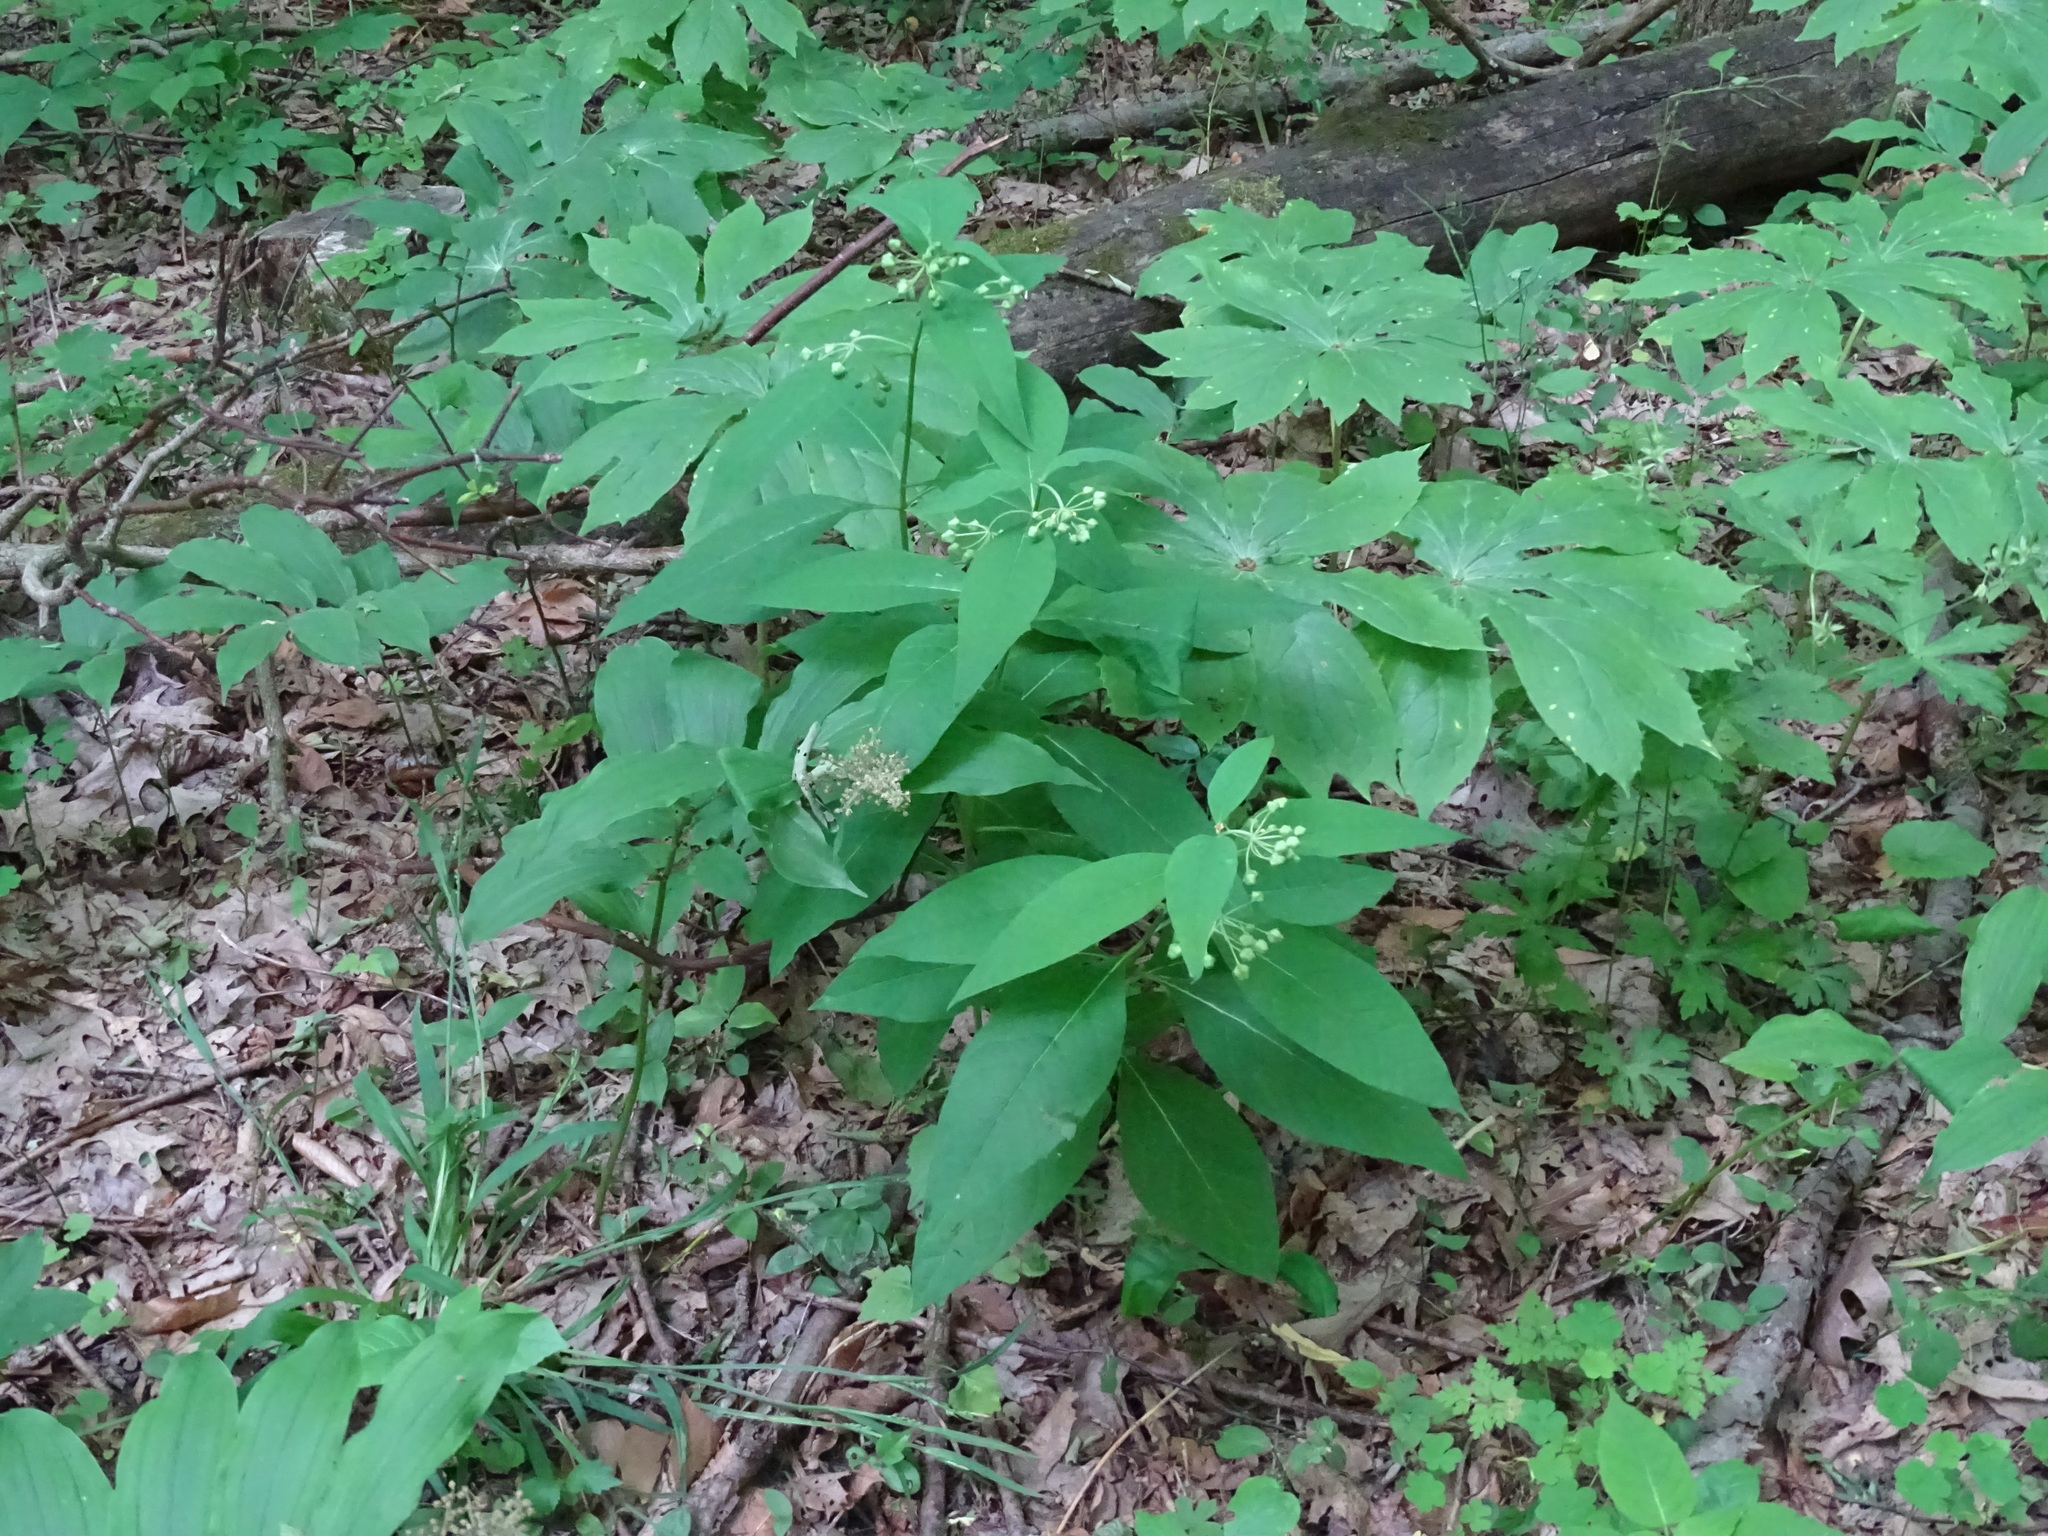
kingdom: Plantae
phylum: Tracheophyta
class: Magnoliopsida
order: Gentianales
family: Apocynaceae
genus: Asclepias
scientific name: Asclepias exaltata
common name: Poke milkweed
